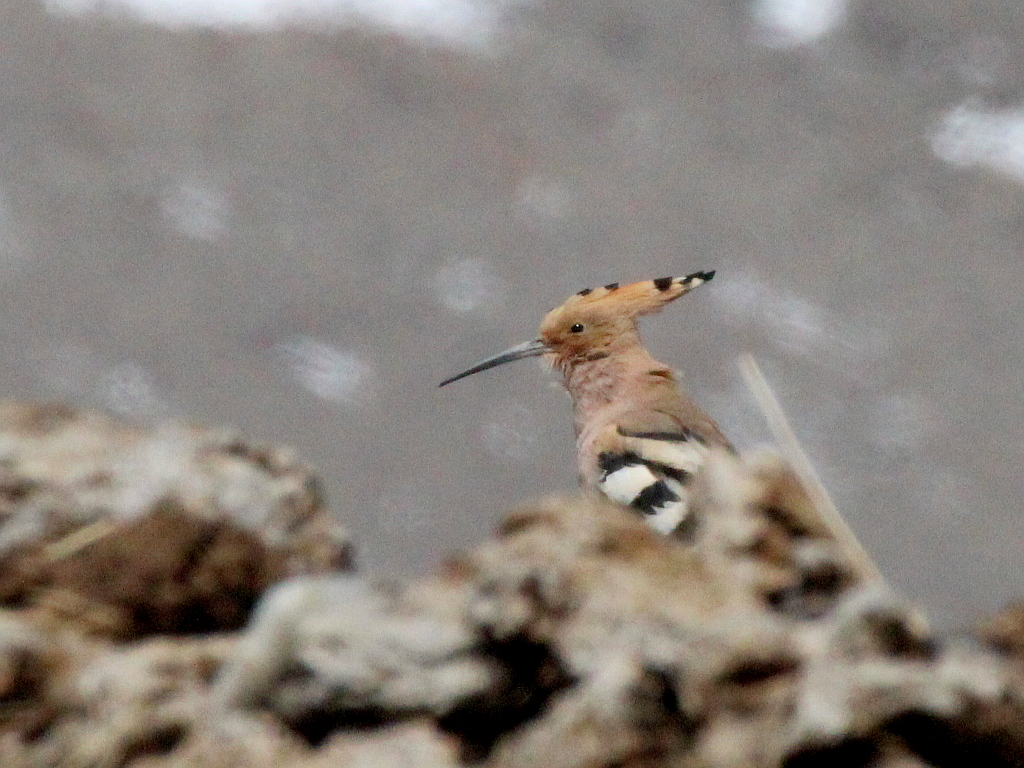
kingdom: Animalia
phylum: Chordata
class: Aves
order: Bucerotiformes
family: Upupidae
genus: Upupa
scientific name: Upupa epops
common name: Eurasian hoopoe
